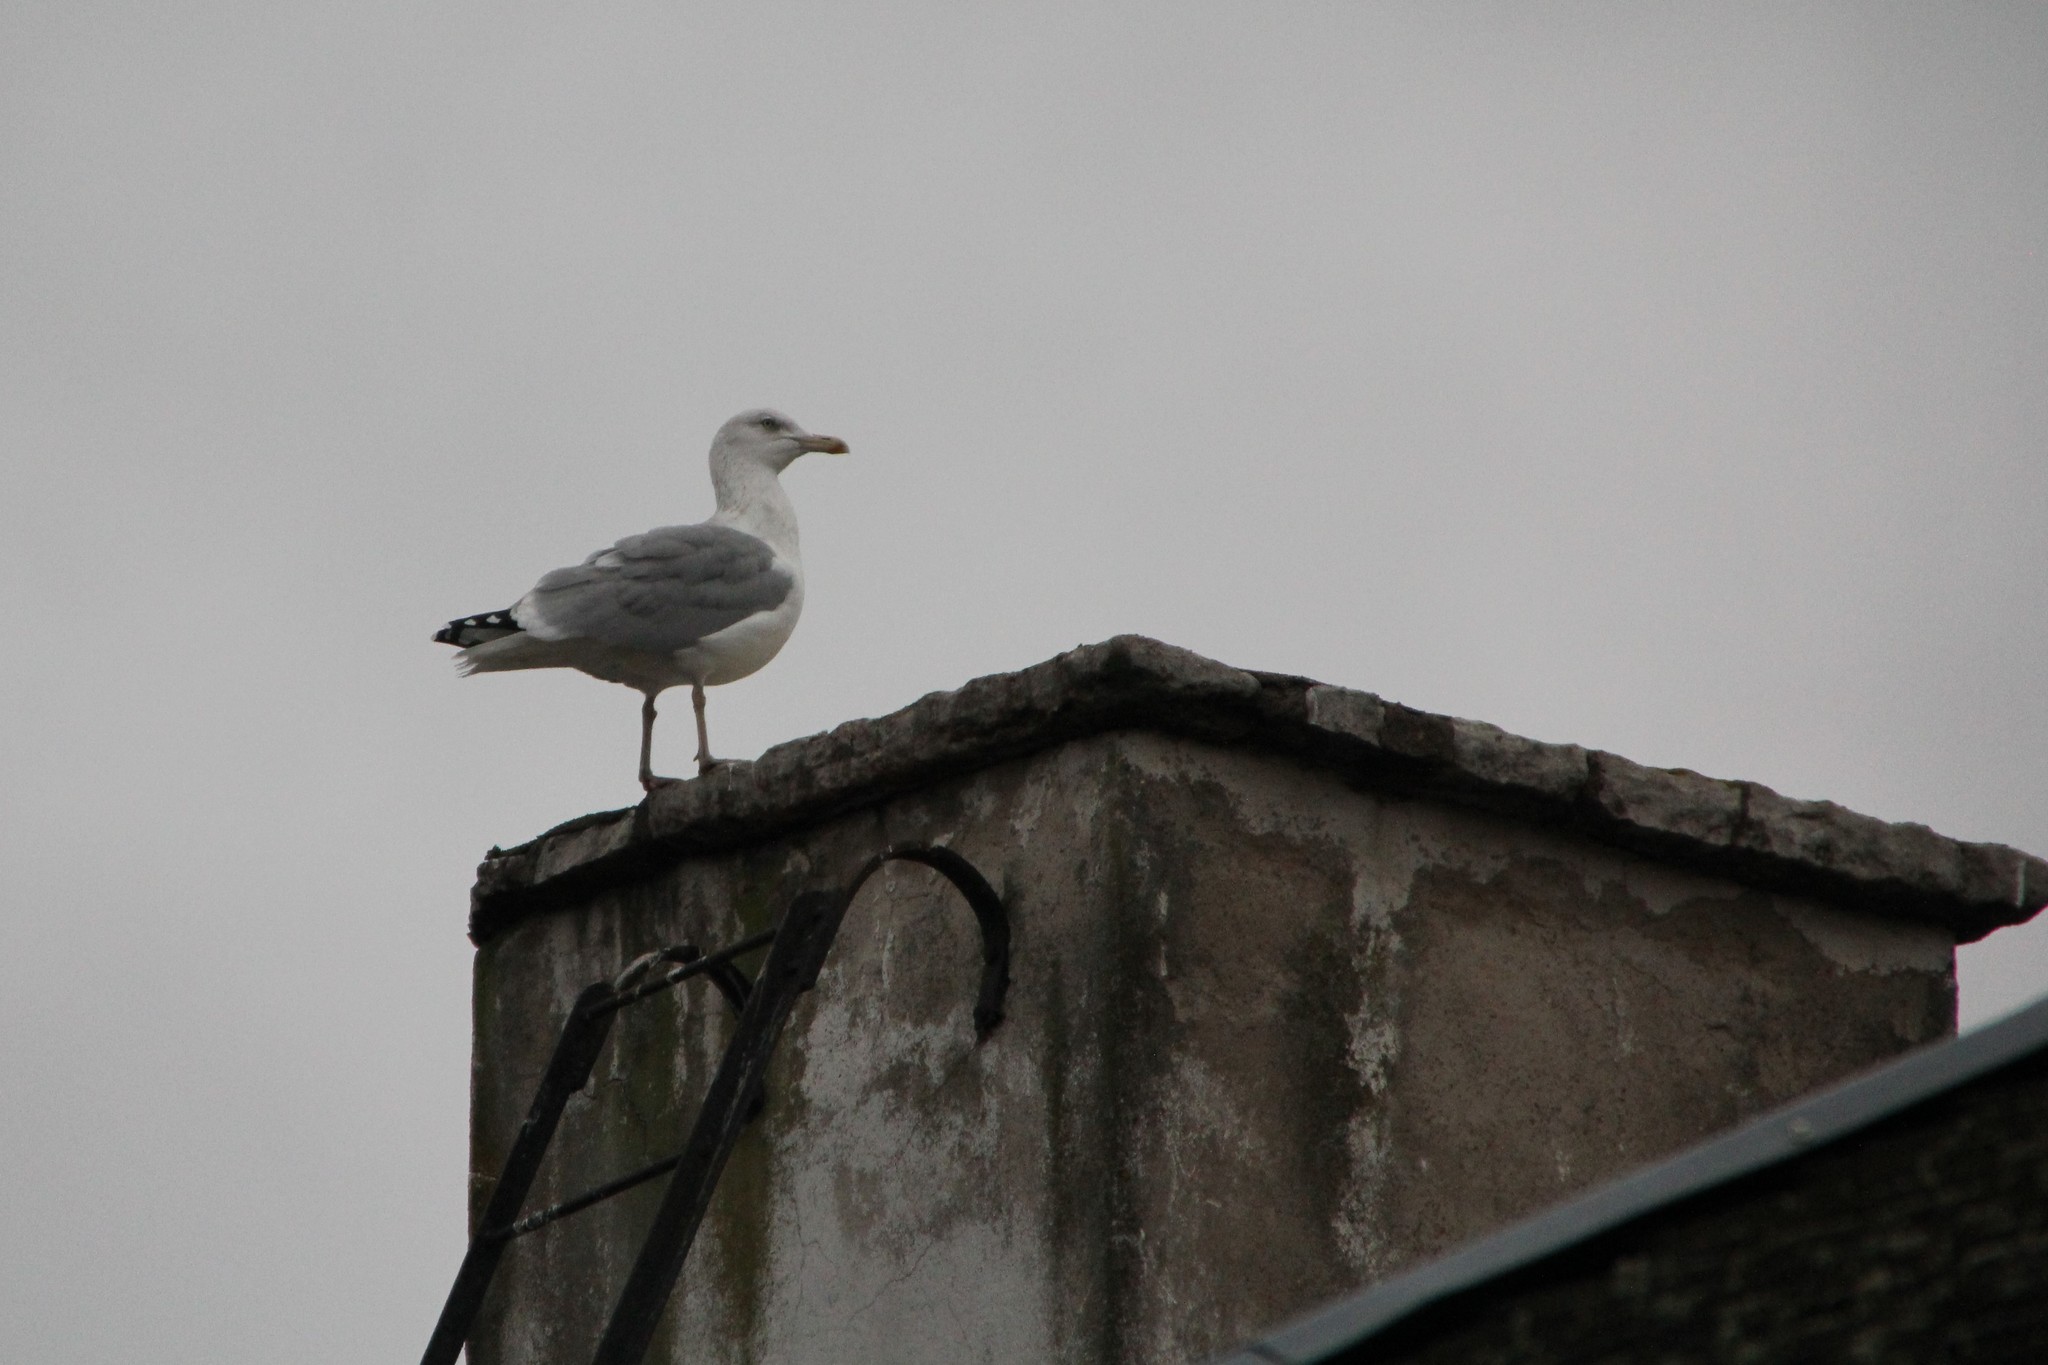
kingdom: Animalia
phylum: Chordata
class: Aves
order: Charadriiformes
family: Laridae
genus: Larus
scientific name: Larus argentatus
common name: Herring gull
